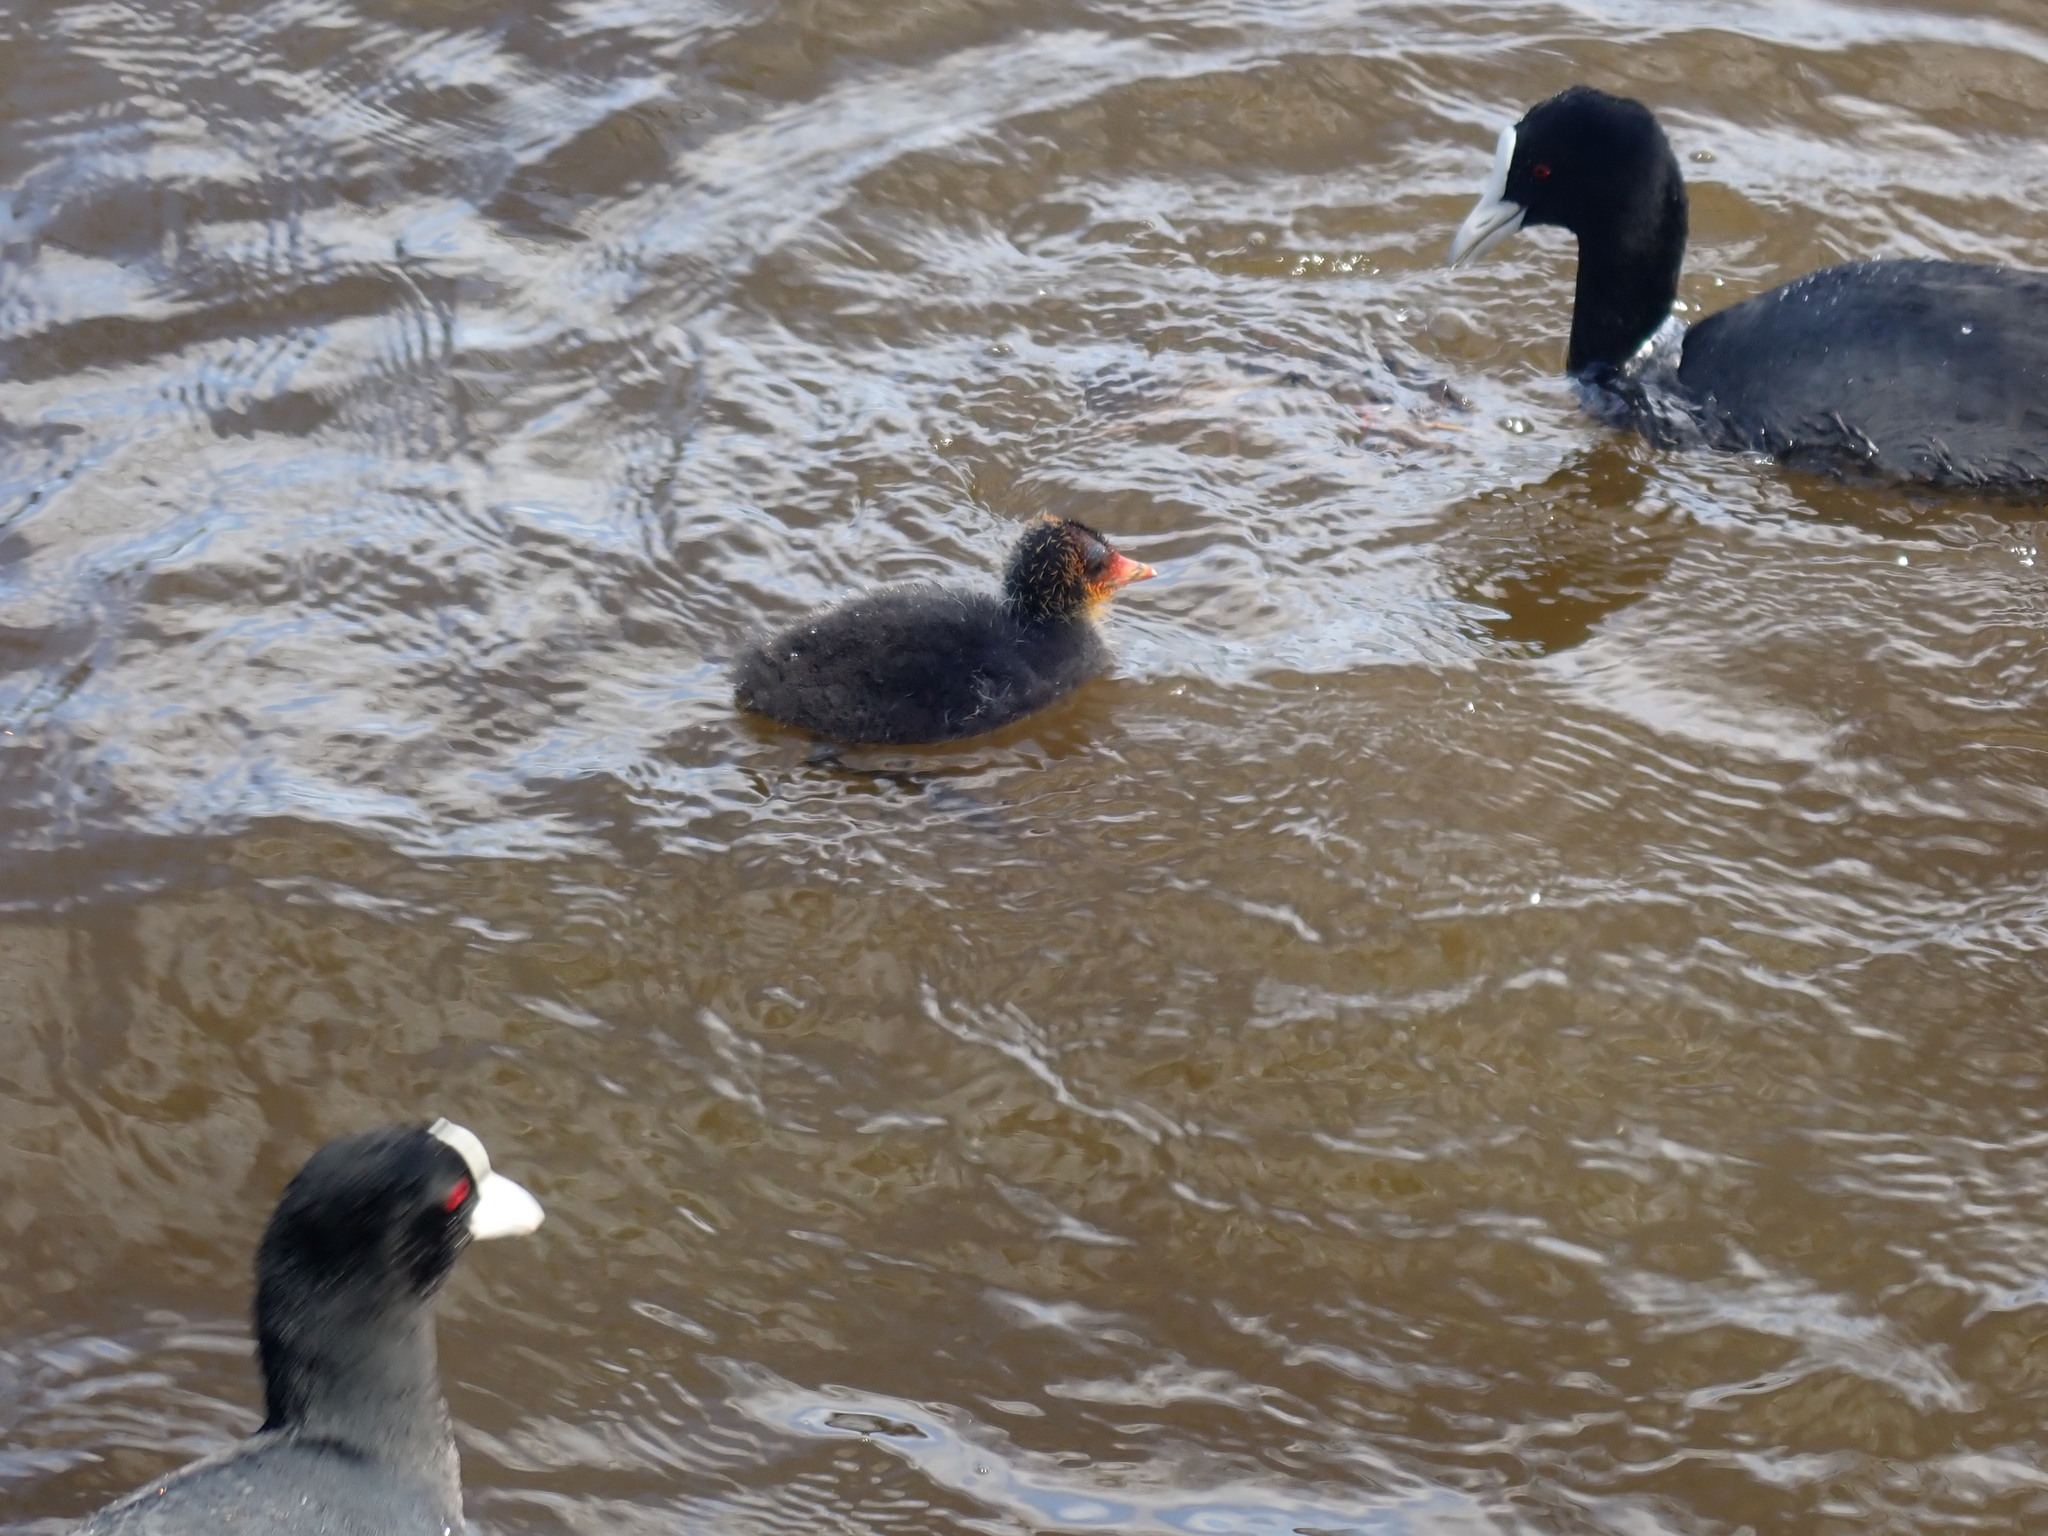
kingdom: Animalia
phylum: Chordata
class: Aves
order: Gruiformes
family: Rallidae
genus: Fulica
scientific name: Fulica atra
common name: Eurasian coot
